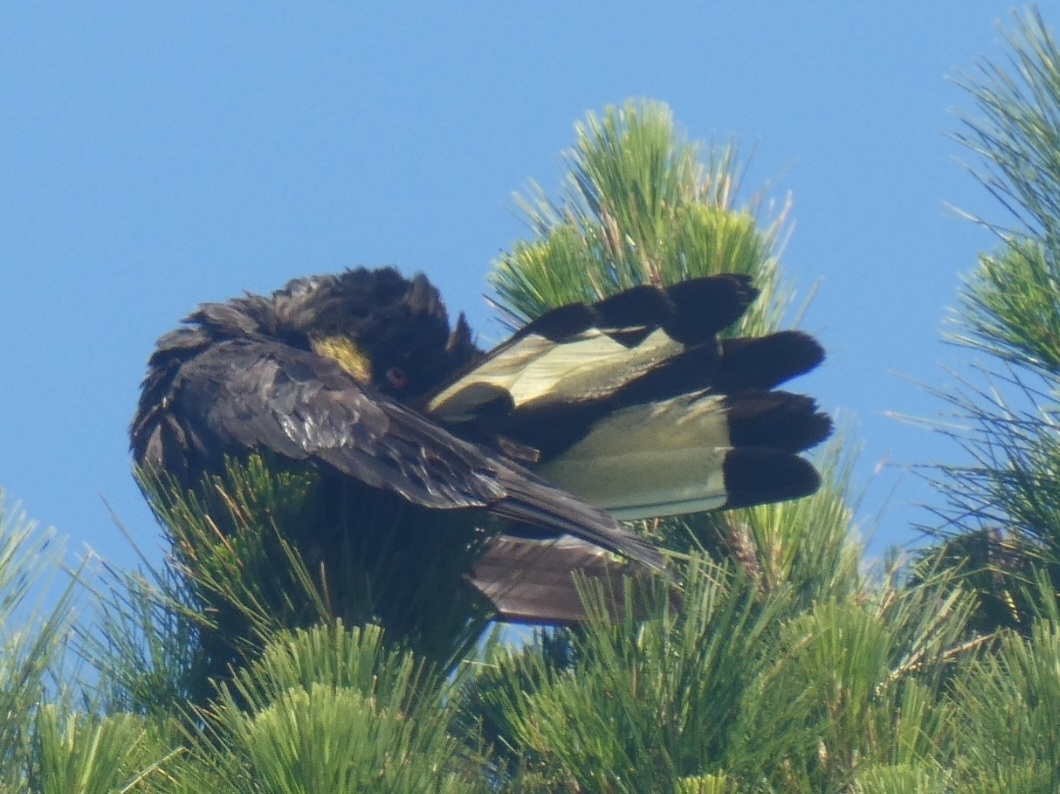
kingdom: Animalia
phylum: Chordata
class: Aves
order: Psittaciformes
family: Cacatuidae
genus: Zanda
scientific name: Zanda funerea
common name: Yellow-tailed black-cockatoo
